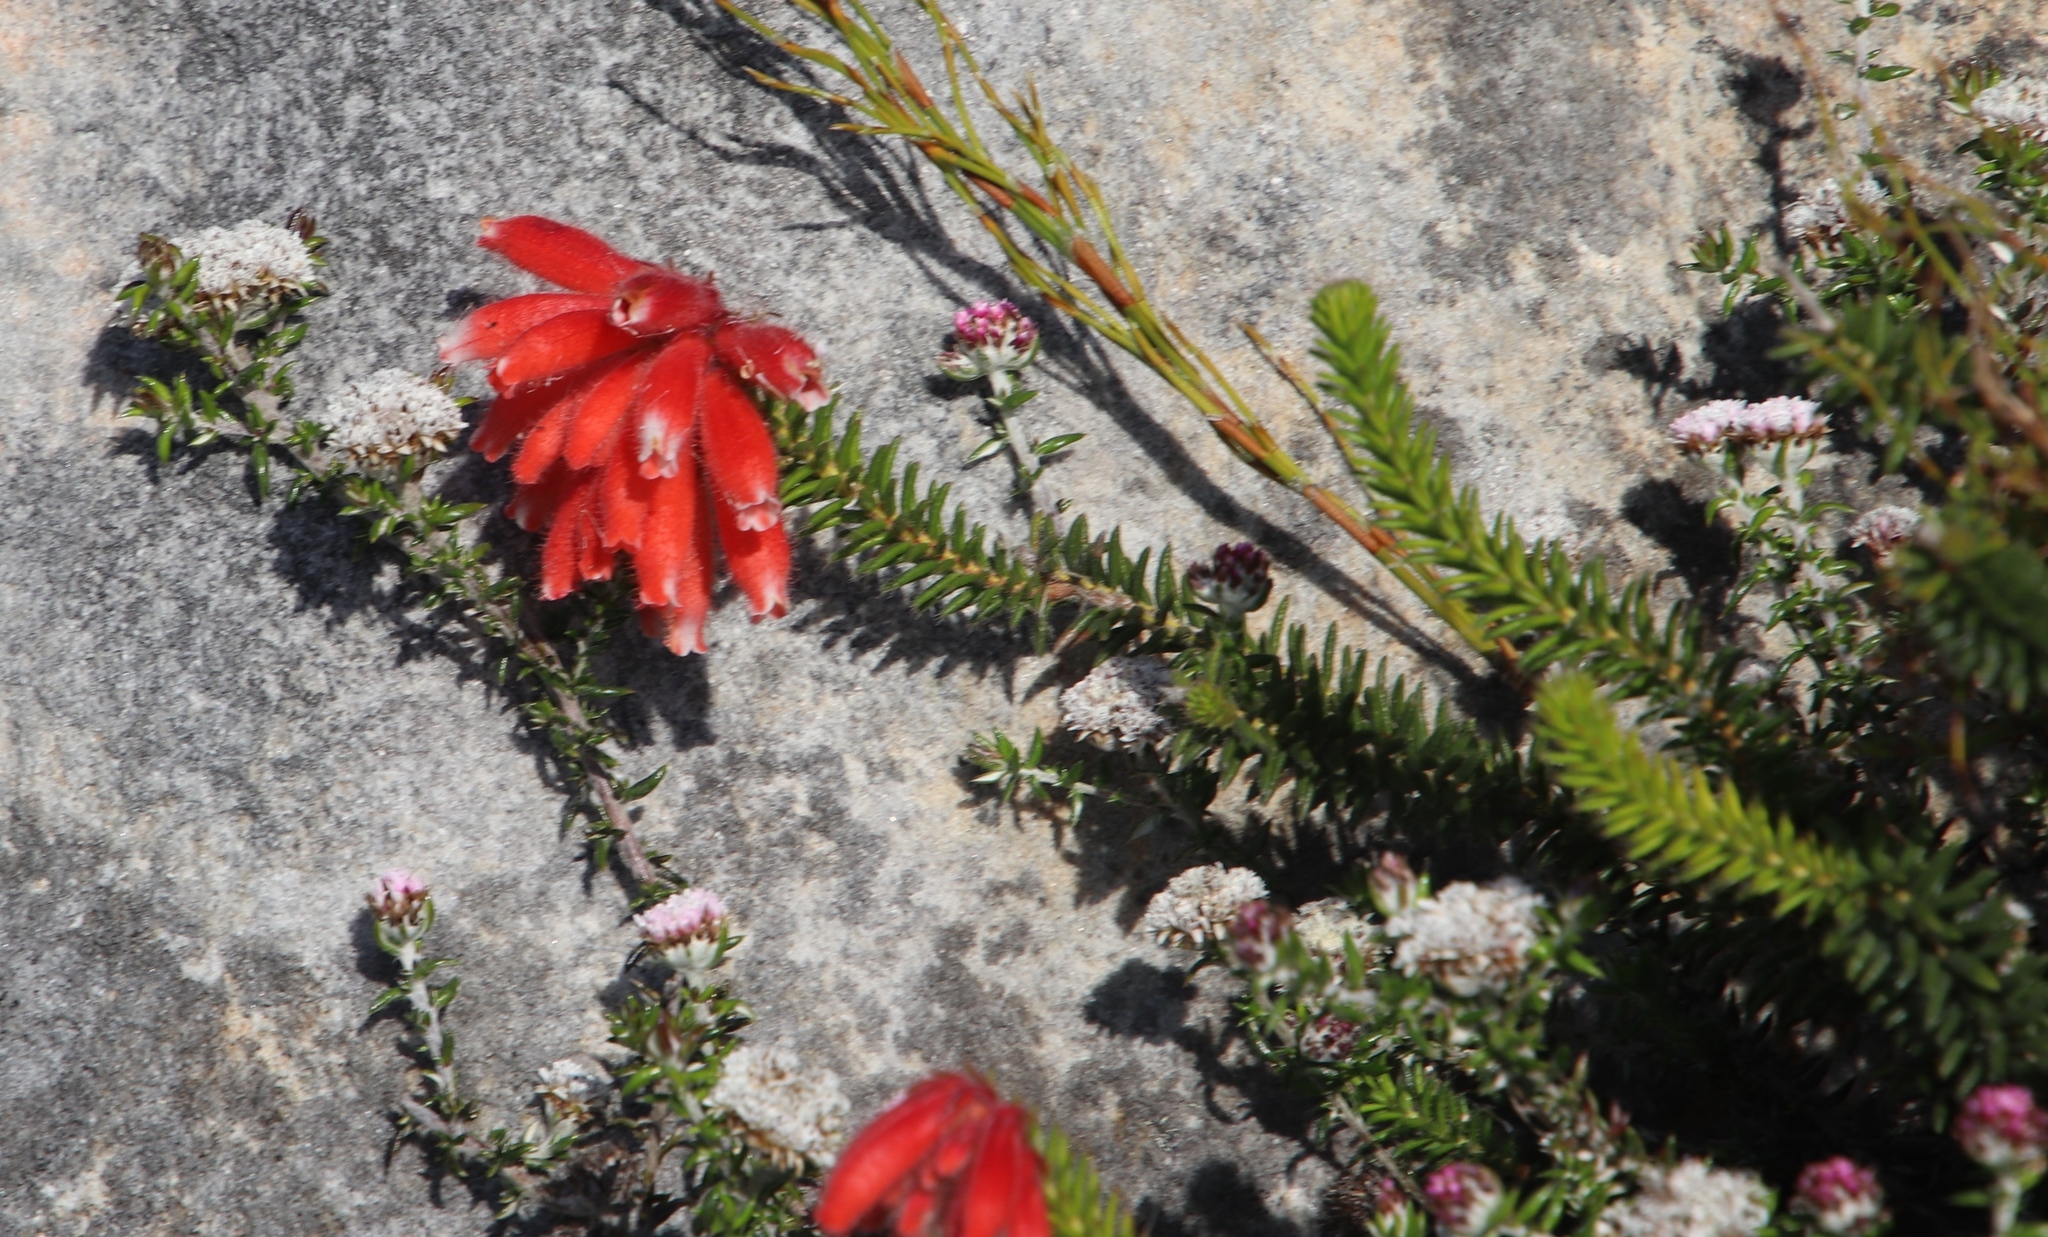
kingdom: Plantae
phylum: Tracheophyta
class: Magnoliopsida
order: Ericales
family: Ericaceae
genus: Erica
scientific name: Erica cerinthoides
